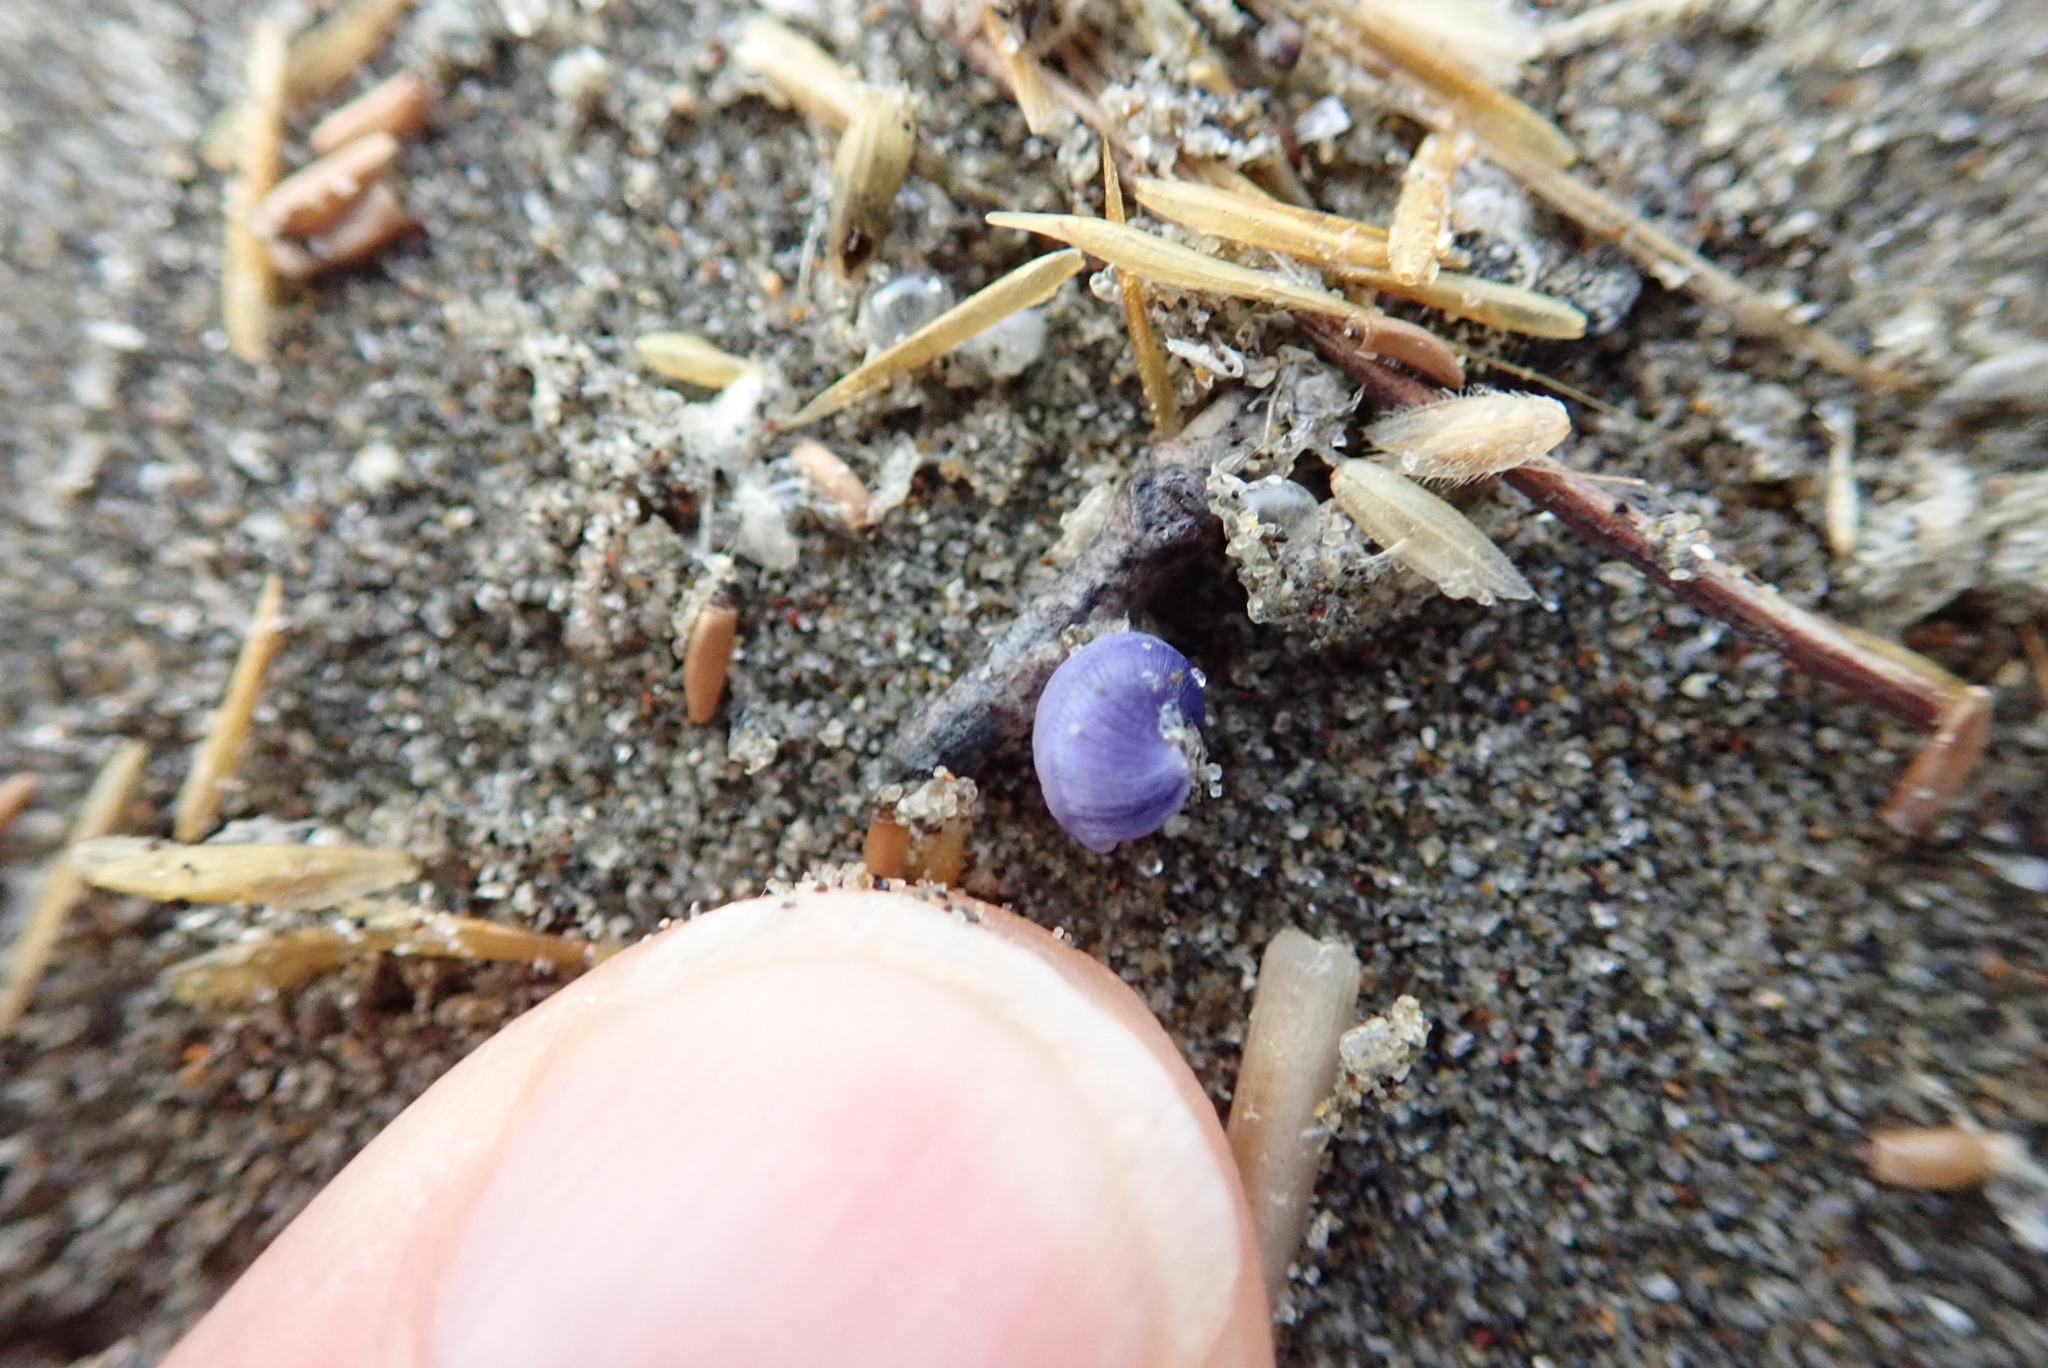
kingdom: Animalia
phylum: Mollusca
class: Gastropoda
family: Epitoniidae
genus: Janthina
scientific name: Janthina exigua
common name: Dwarf janthina
